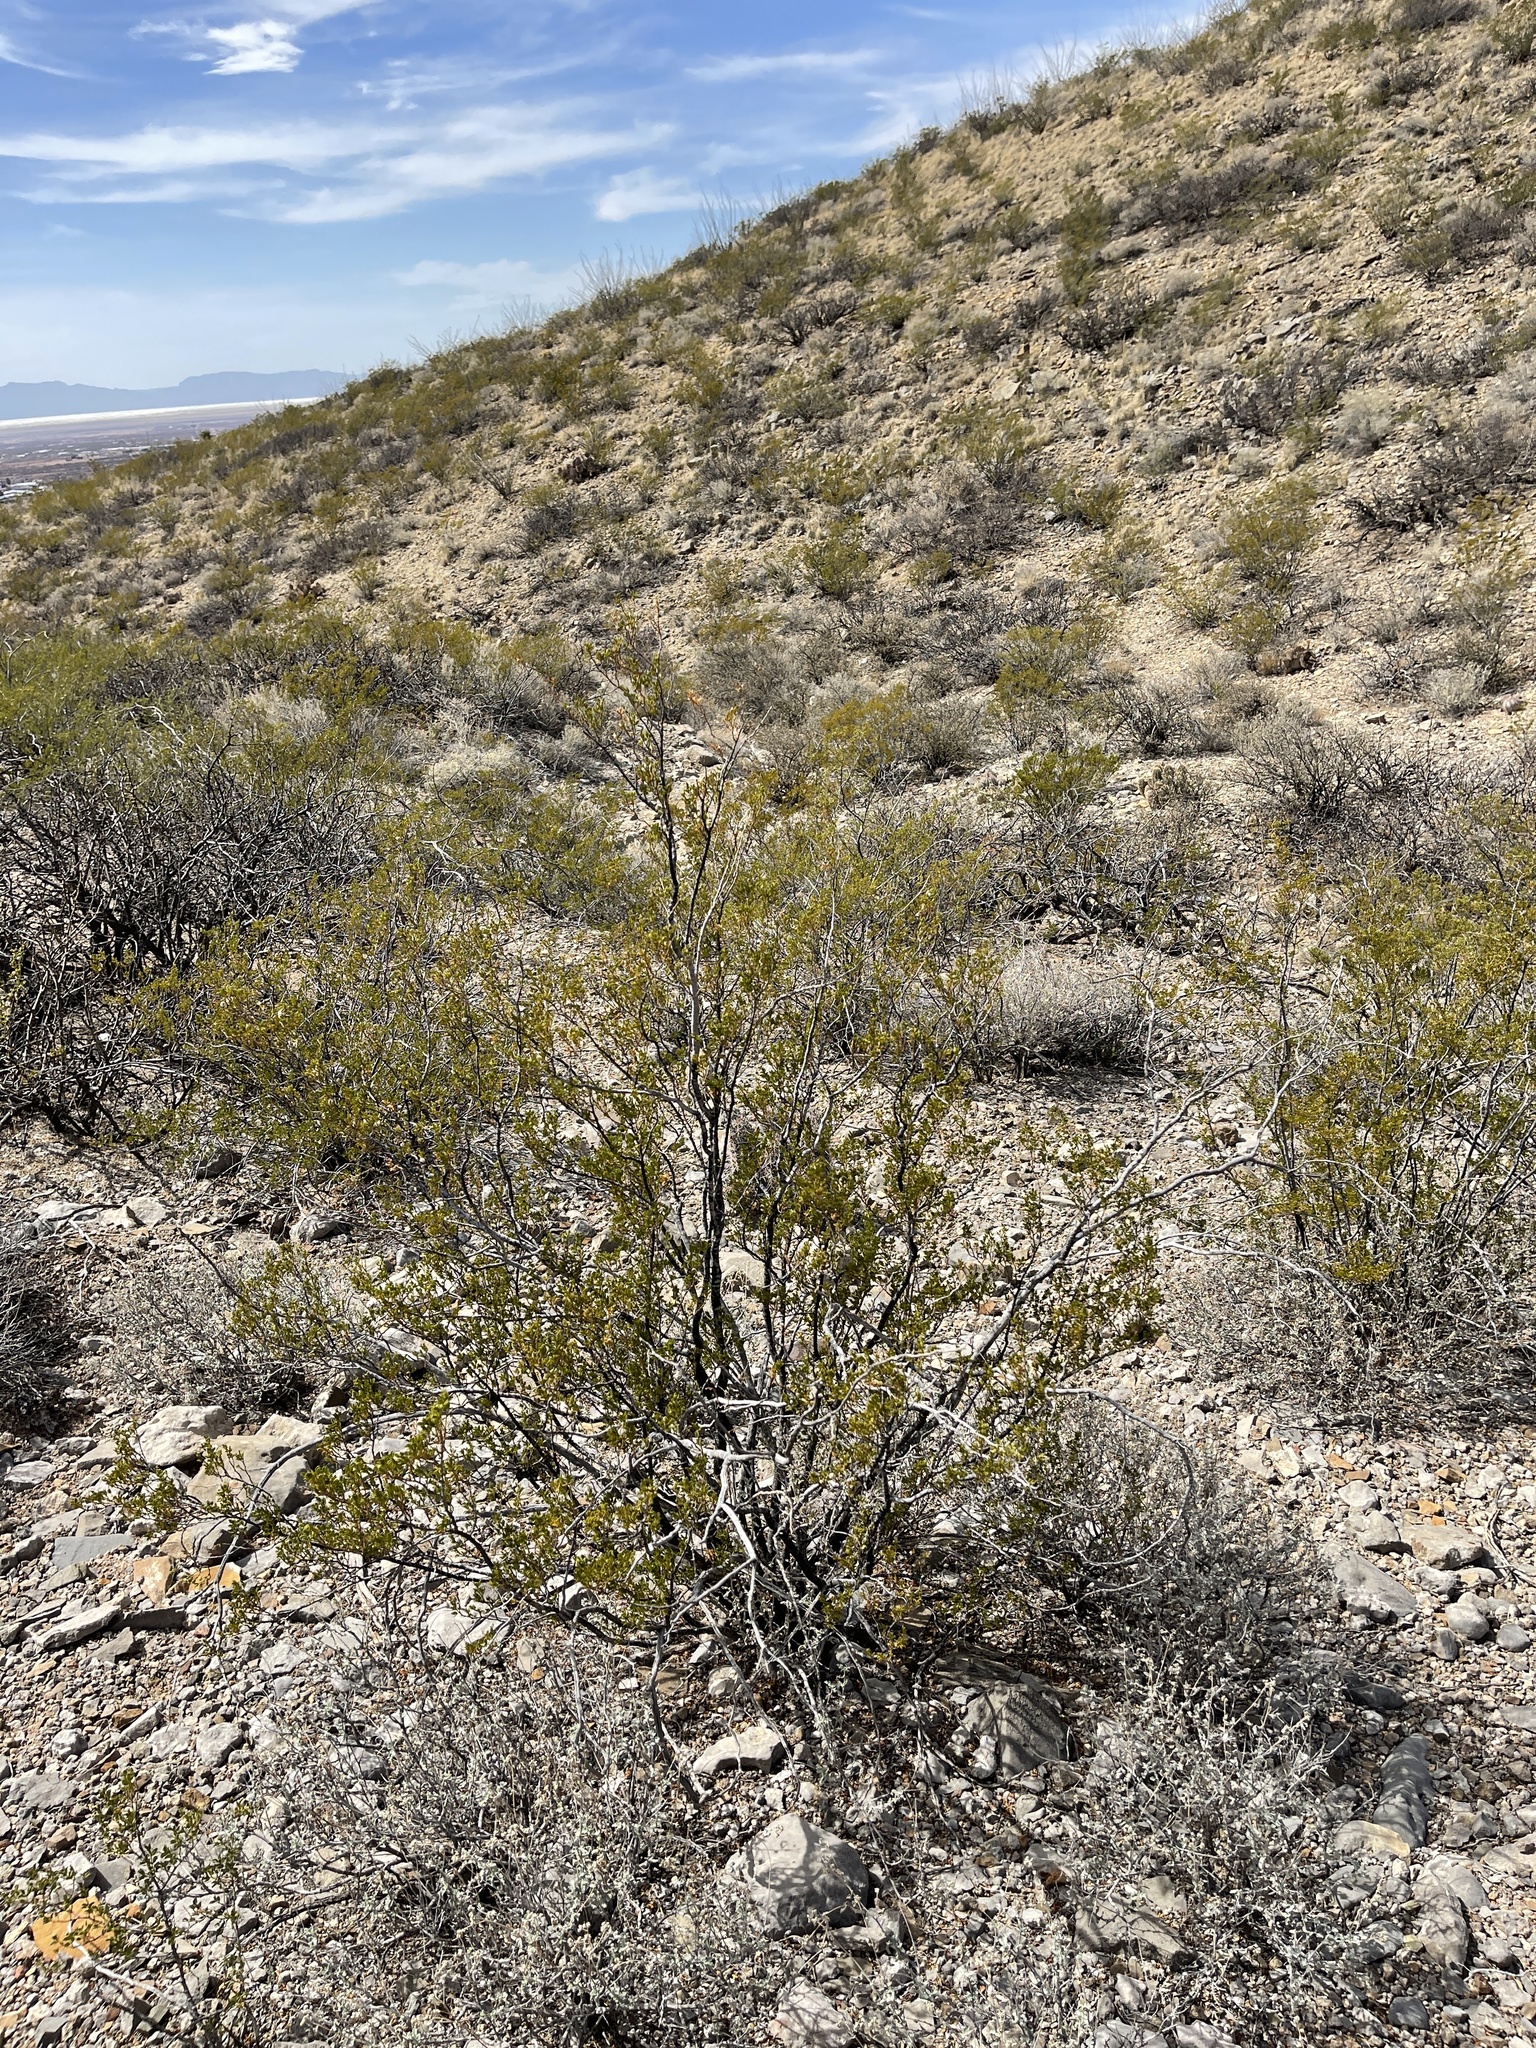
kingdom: Plantae
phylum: Tracheophyta
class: Magnoliopsida
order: Zygophyllales
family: Zygophyllaceae
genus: Larrea
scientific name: Larrea tridentata
